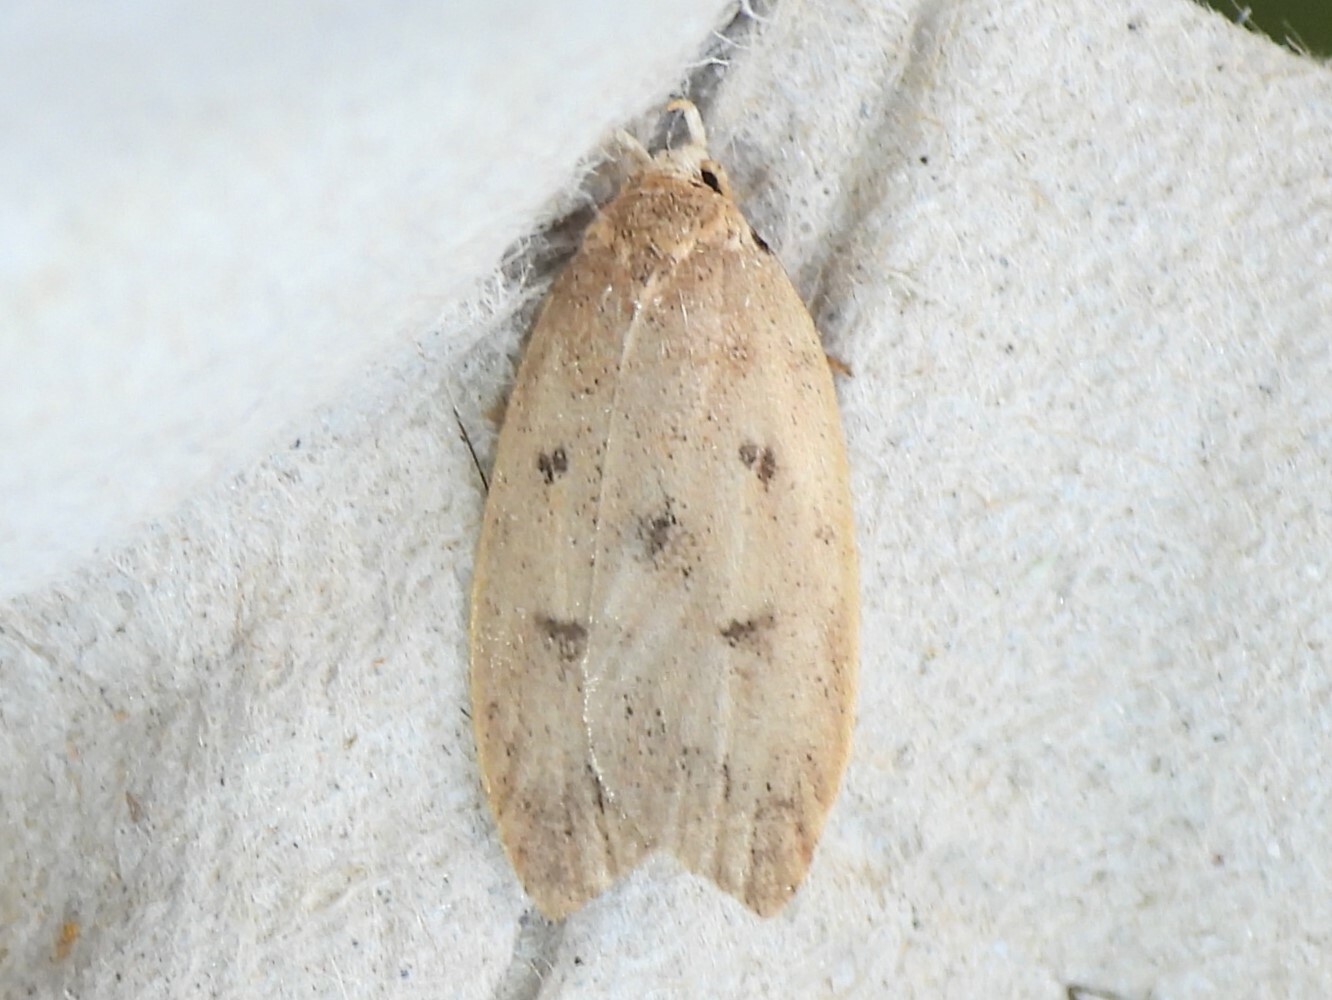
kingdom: Animalia
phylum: Arthropoda
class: Insecta
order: Lepidoptera
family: Peleopodidae
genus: Machimia
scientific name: Machimia tentoriferella
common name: Gold-striped leaftier moth
